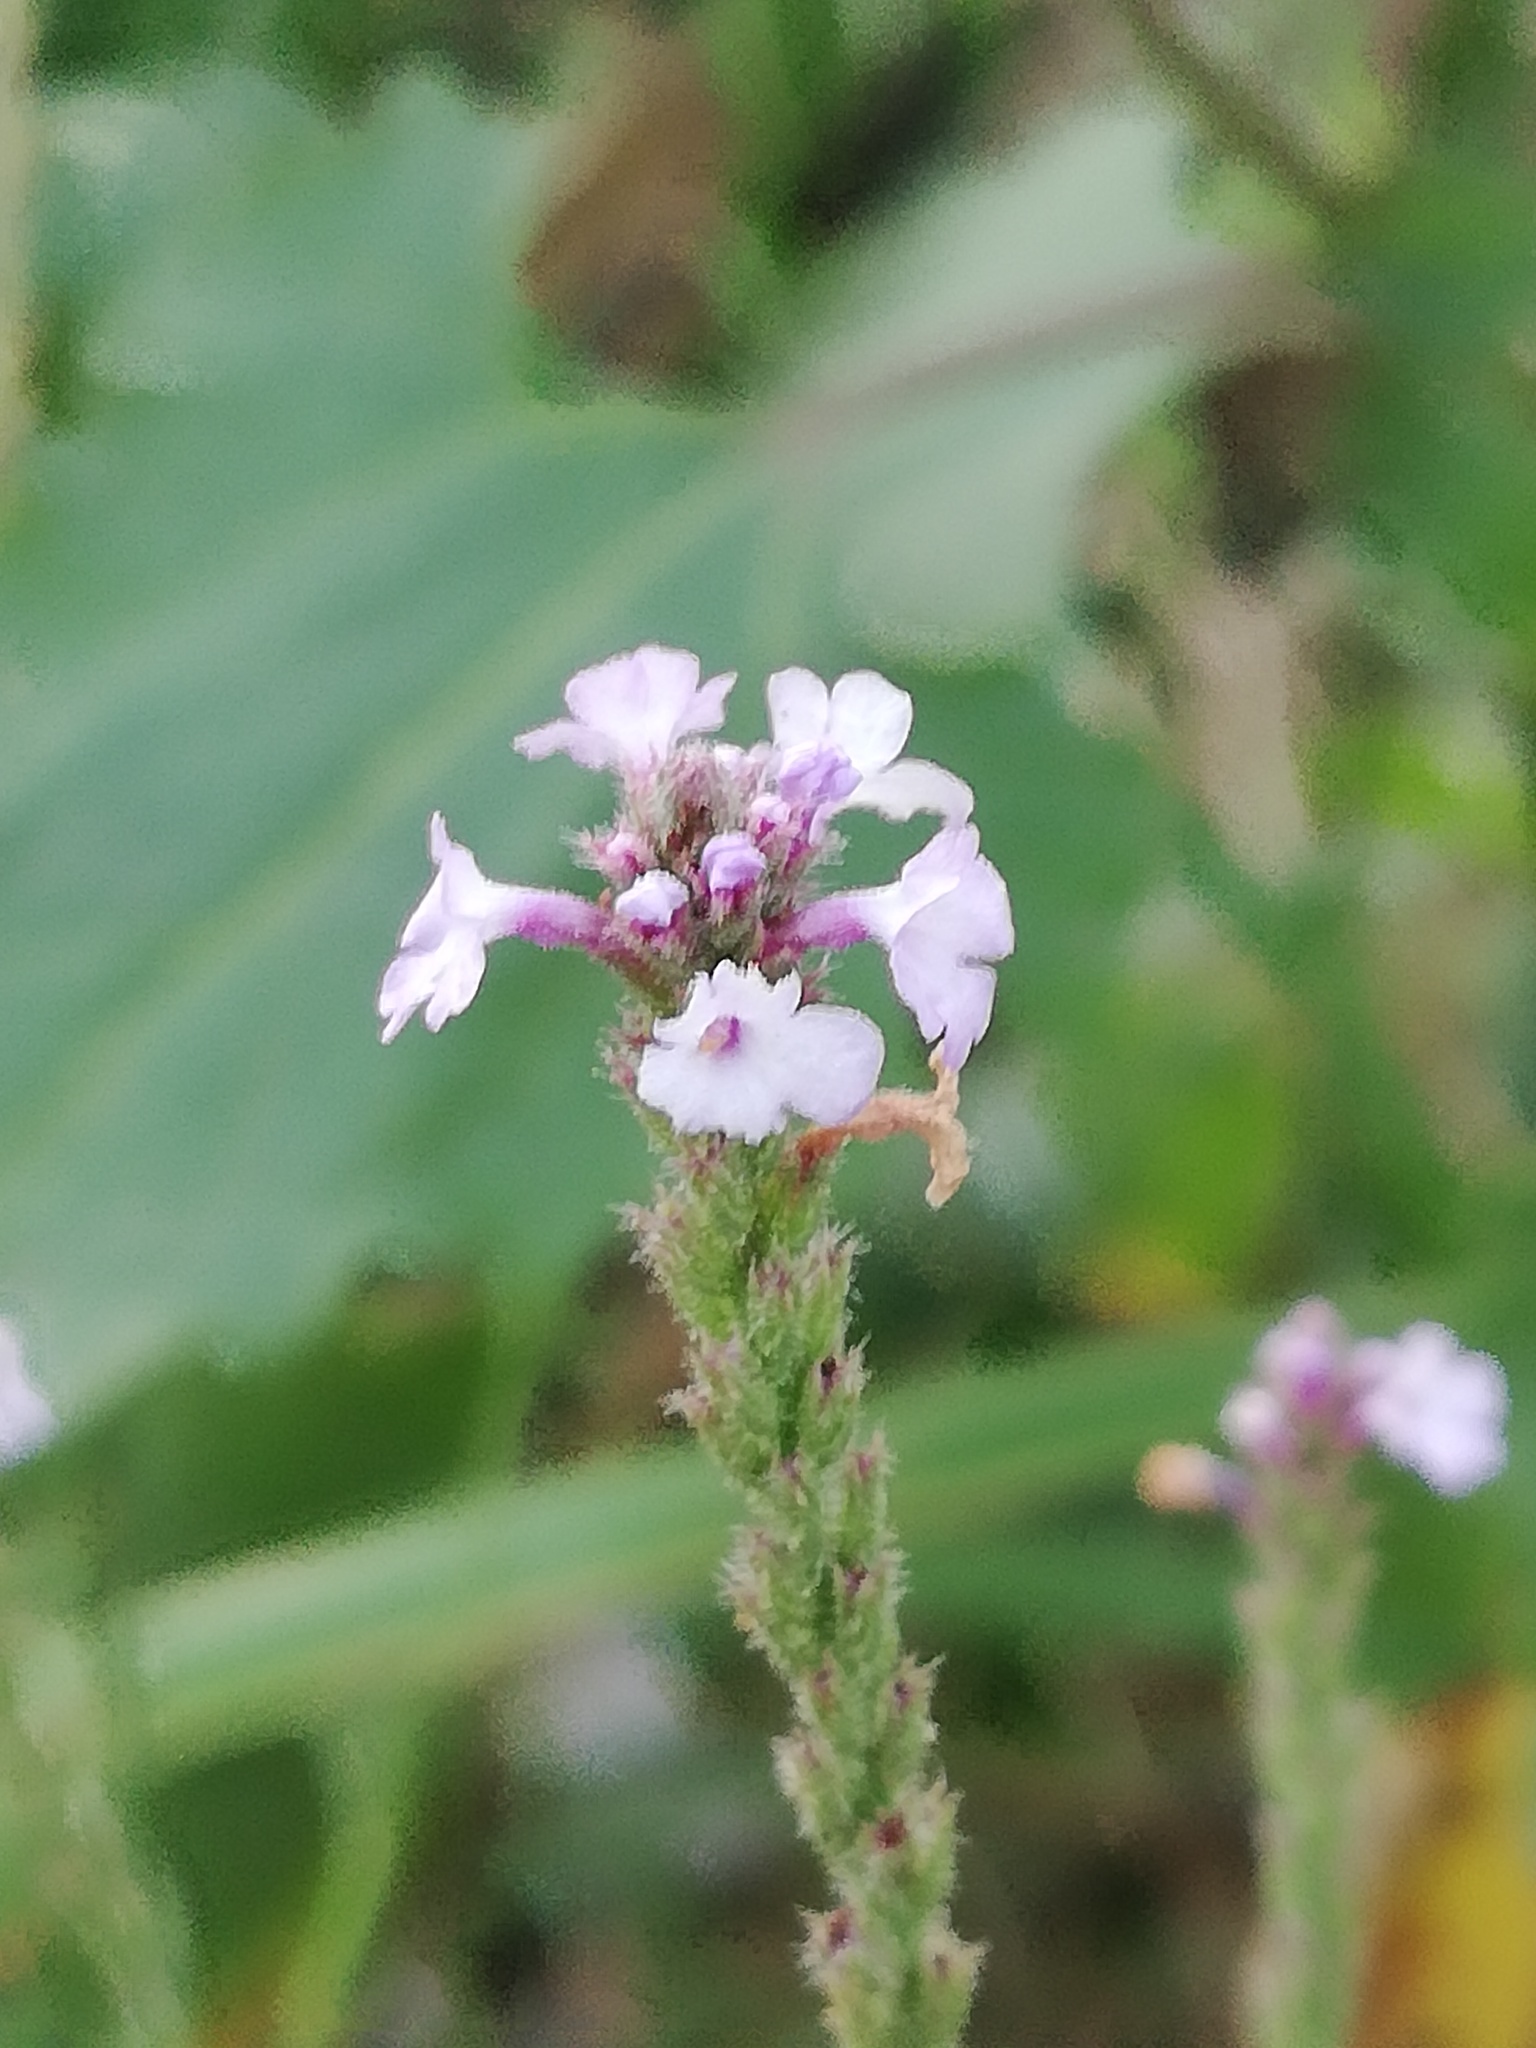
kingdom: Plantae
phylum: Tracheophyta
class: Magnoliopsida
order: Lamiales
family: Verbenaceae
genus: Verbena
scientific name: Verbena halei
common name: Texas vervain
